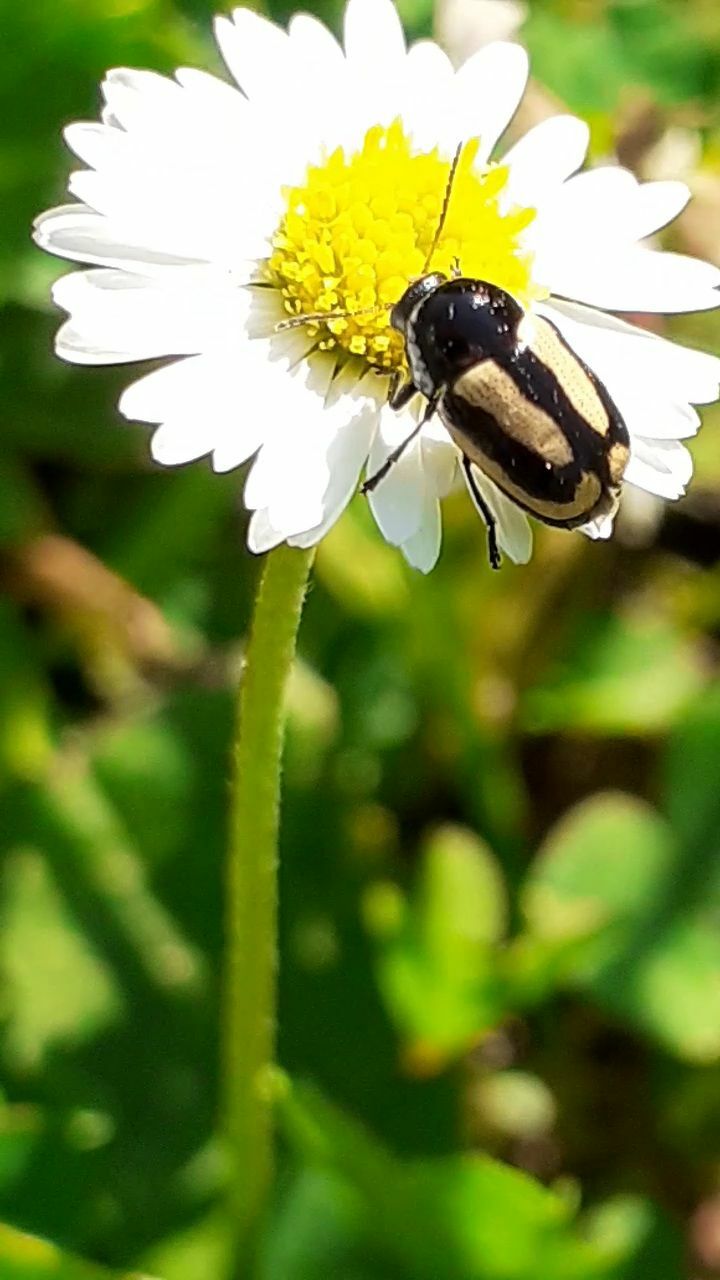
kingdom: Animalia
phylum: Arthropoda
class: Insecta
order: Coleoptera
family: Chrysomelidae
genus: Acalymma
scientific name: Acalymma vittatum
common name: Striped cucumber beetle
